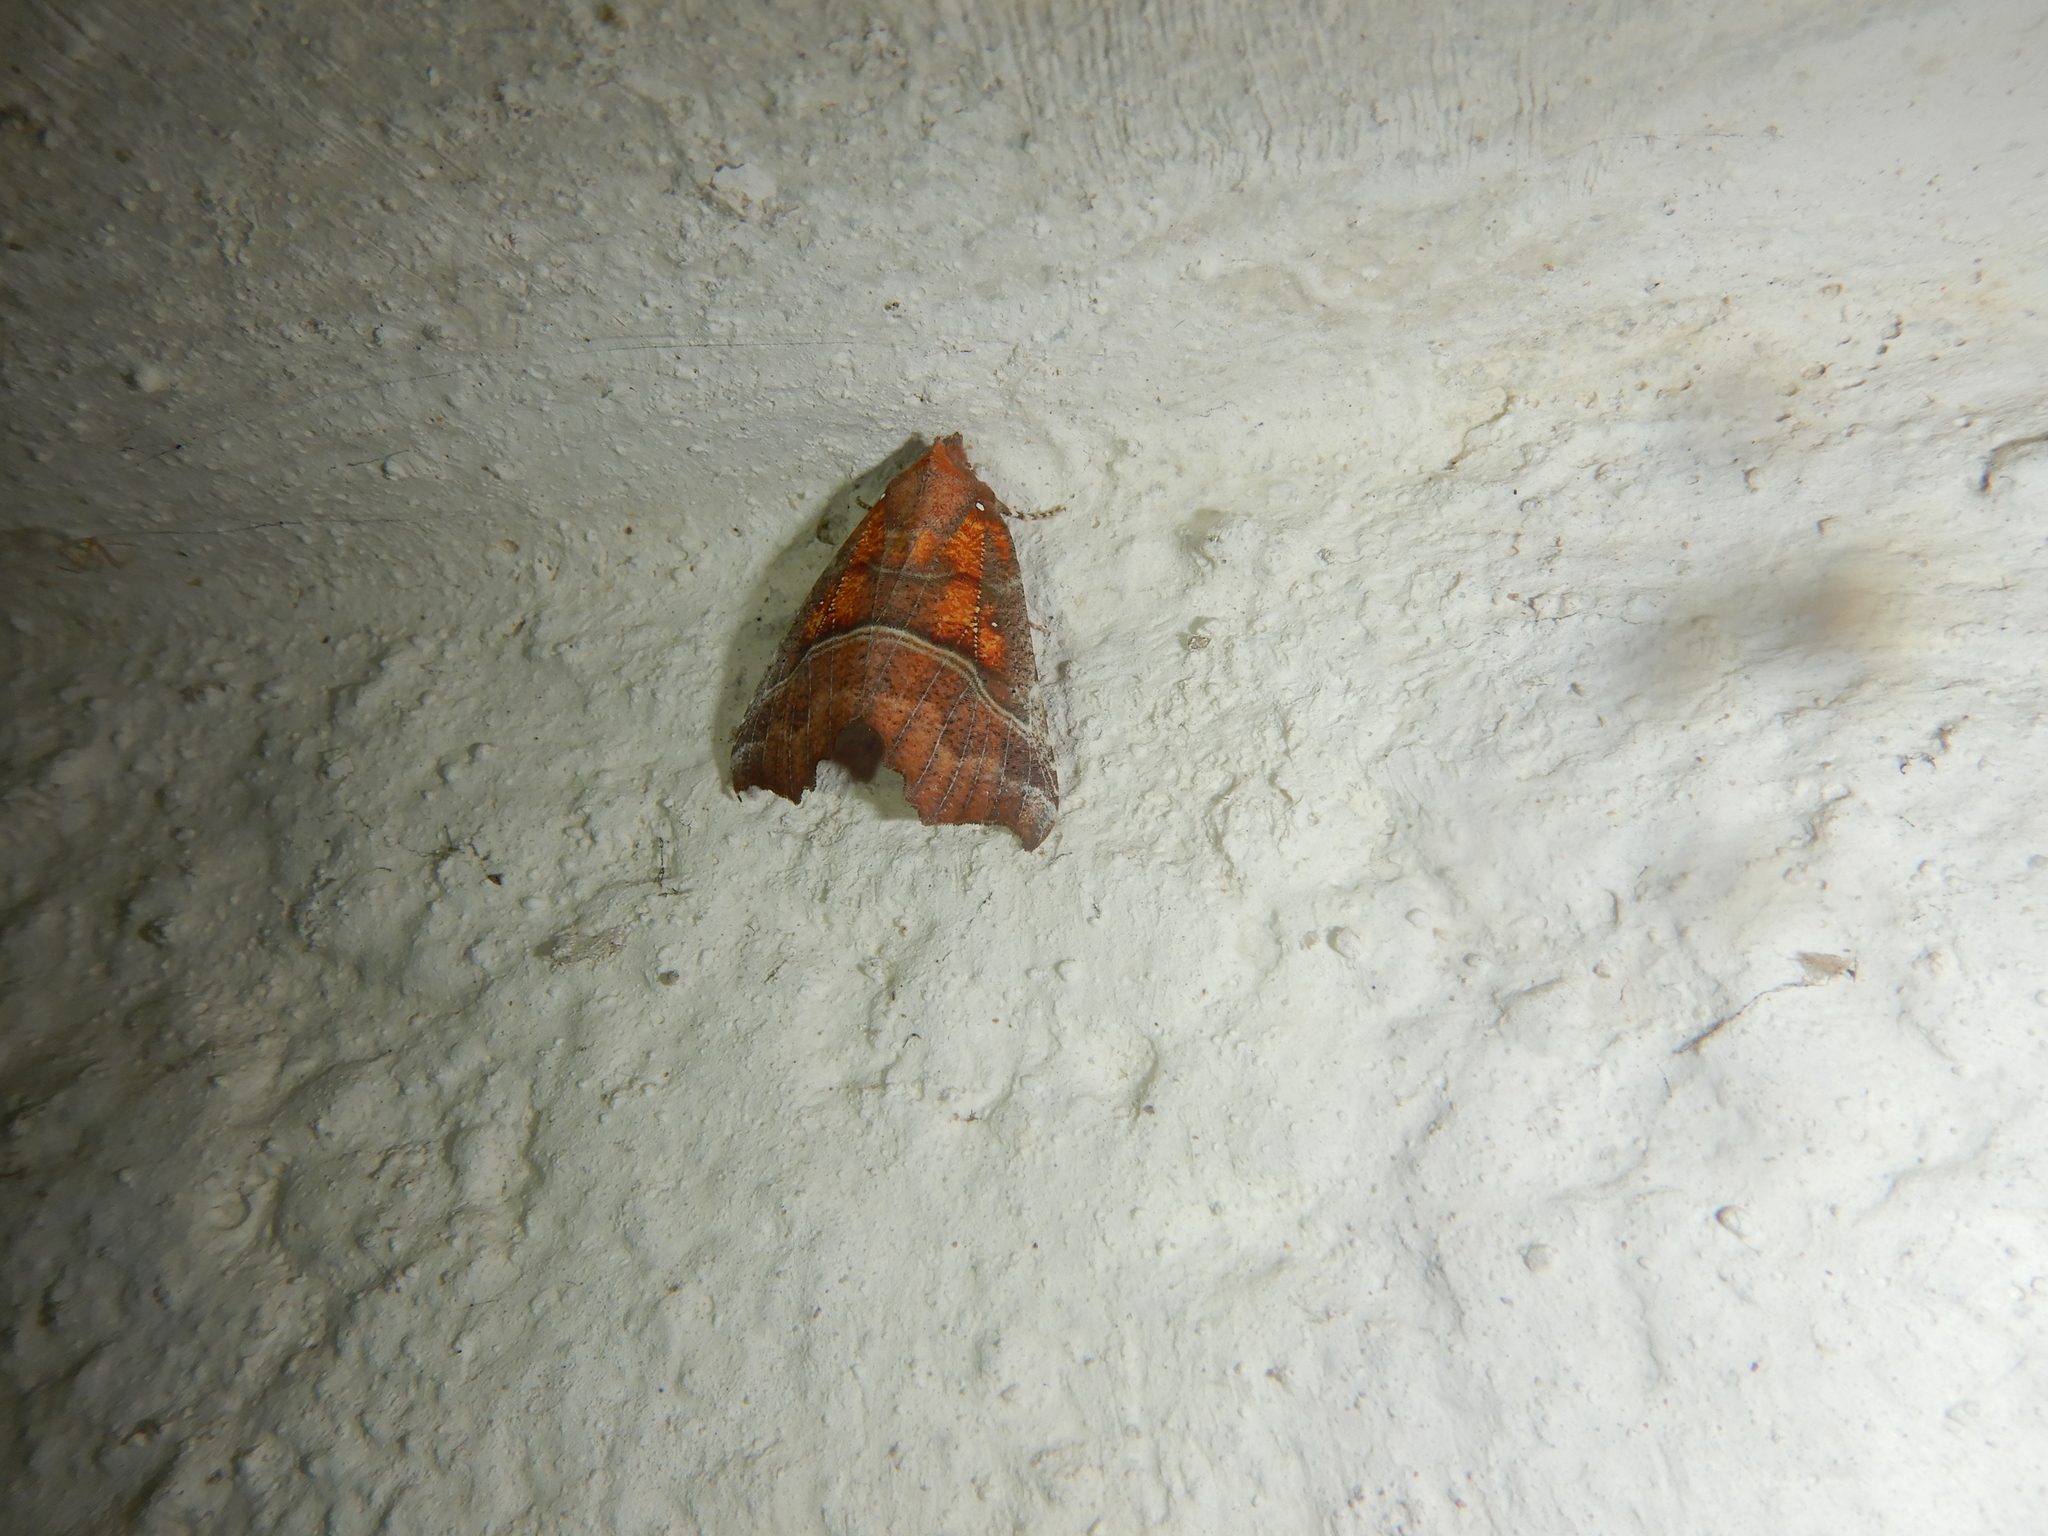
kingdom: Animalia
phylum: Arthropoda
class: Insecta
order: Lepidoptera
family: Erebidae
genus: Scoliopteryx
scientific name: Scoliopteryx libatrix
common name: Herald
